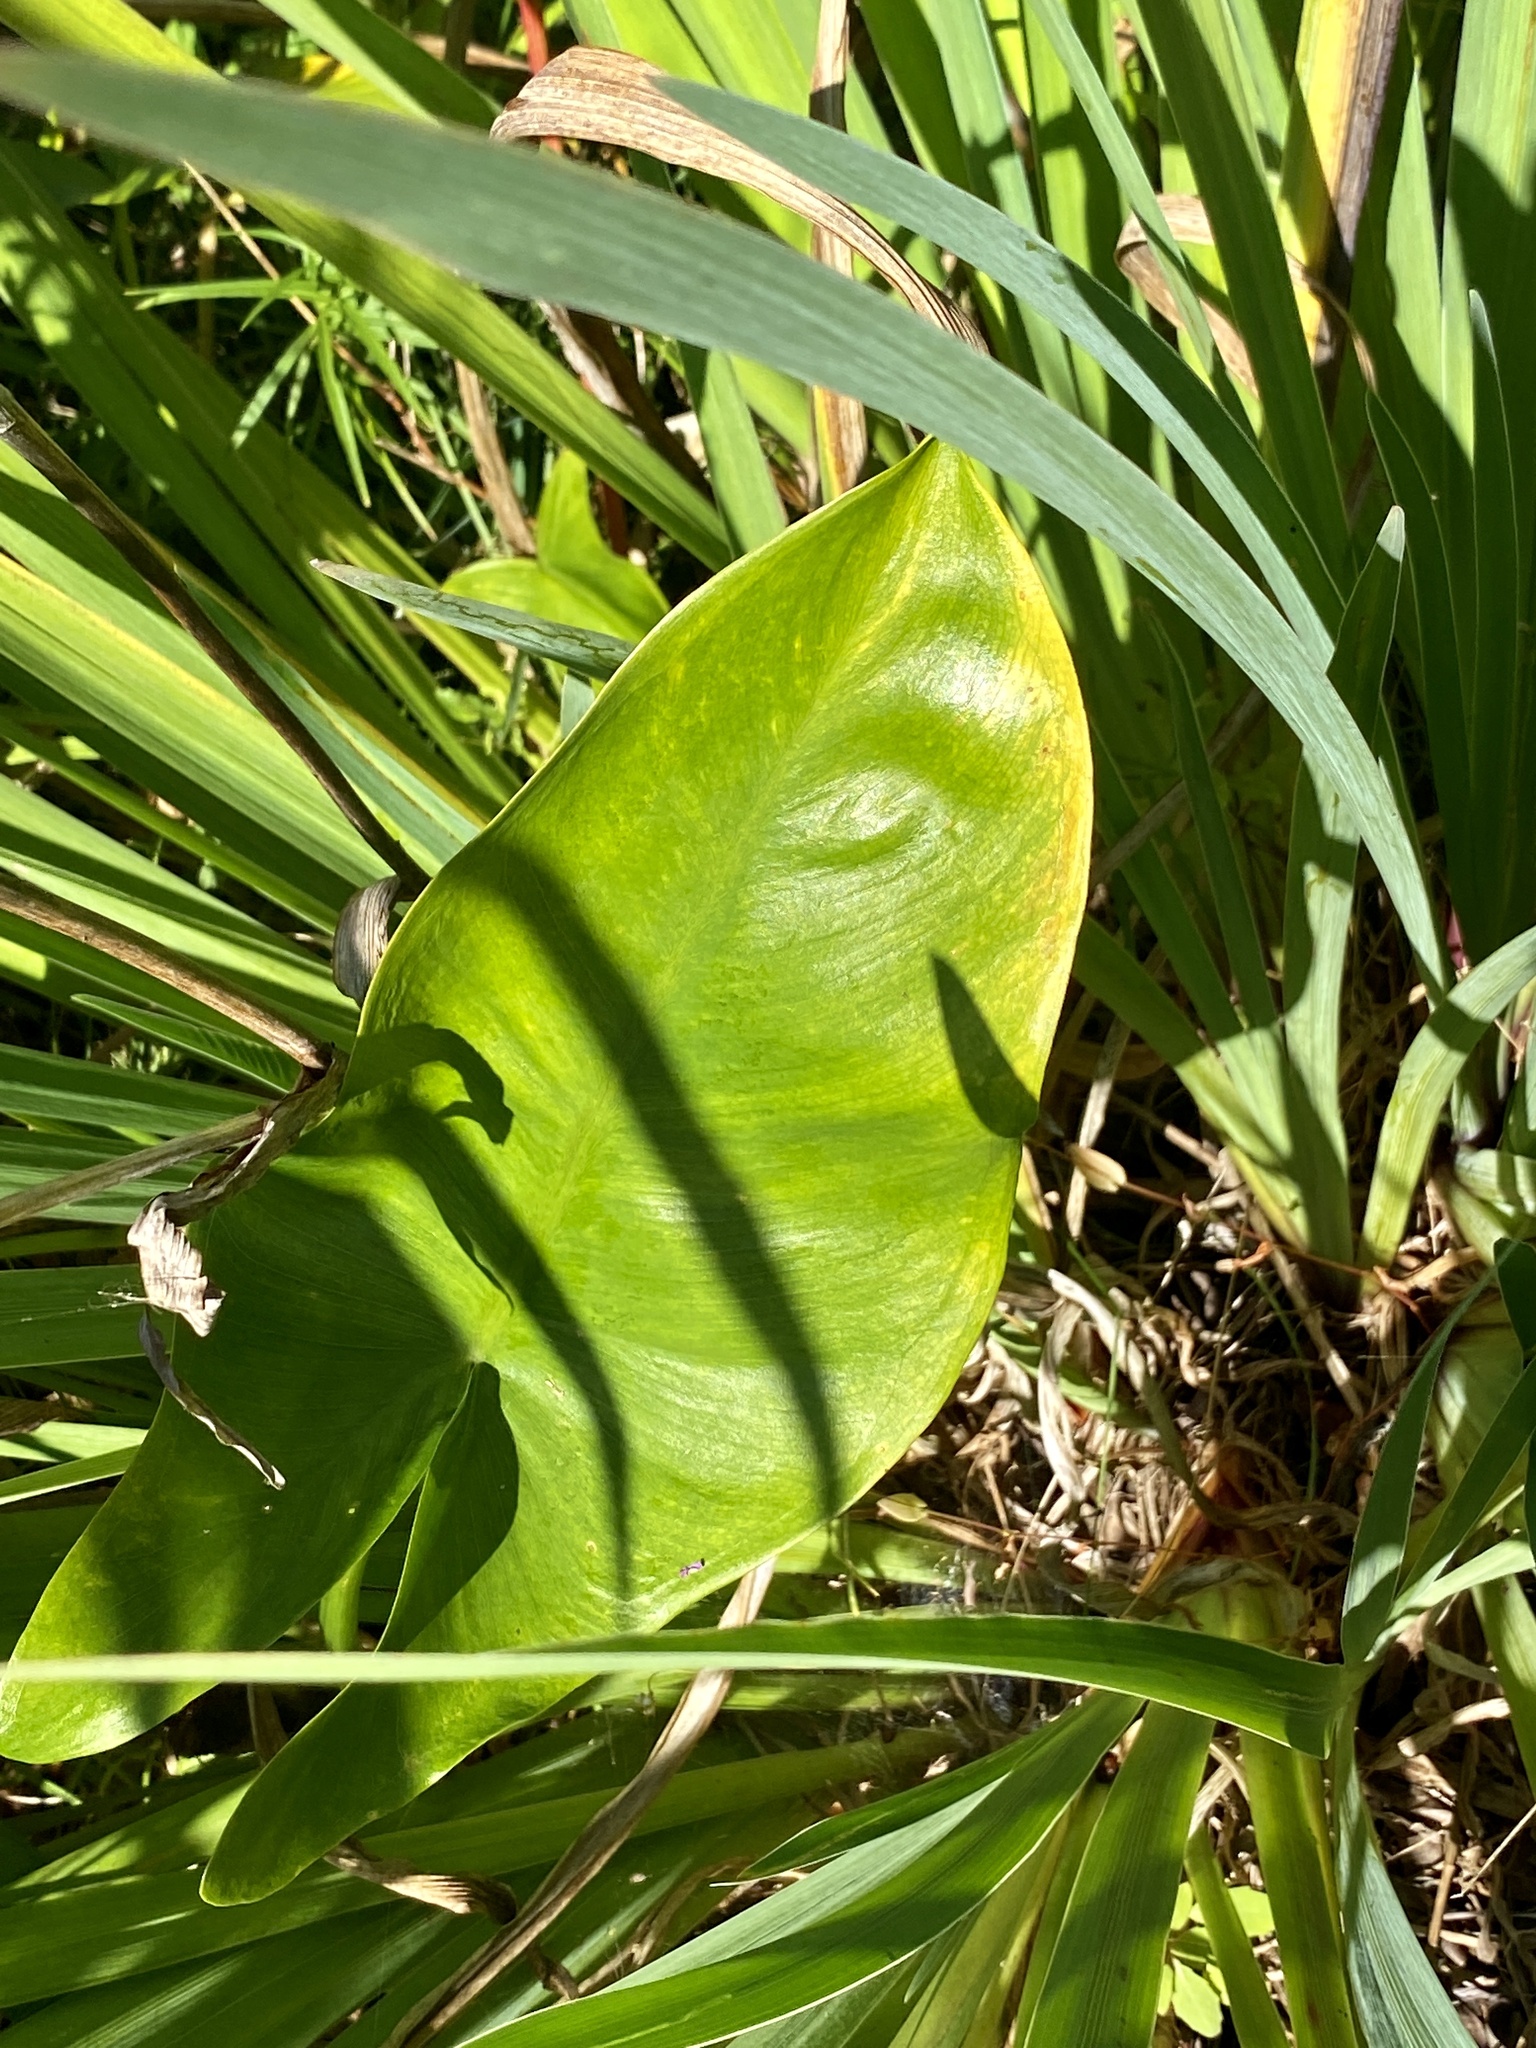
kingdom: Plantae
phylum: Tracheophyta
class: Liliopsida
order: Alismatales
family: Araceae
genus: Peltandra
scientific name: Peltandra virginica
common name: Arrow arum
